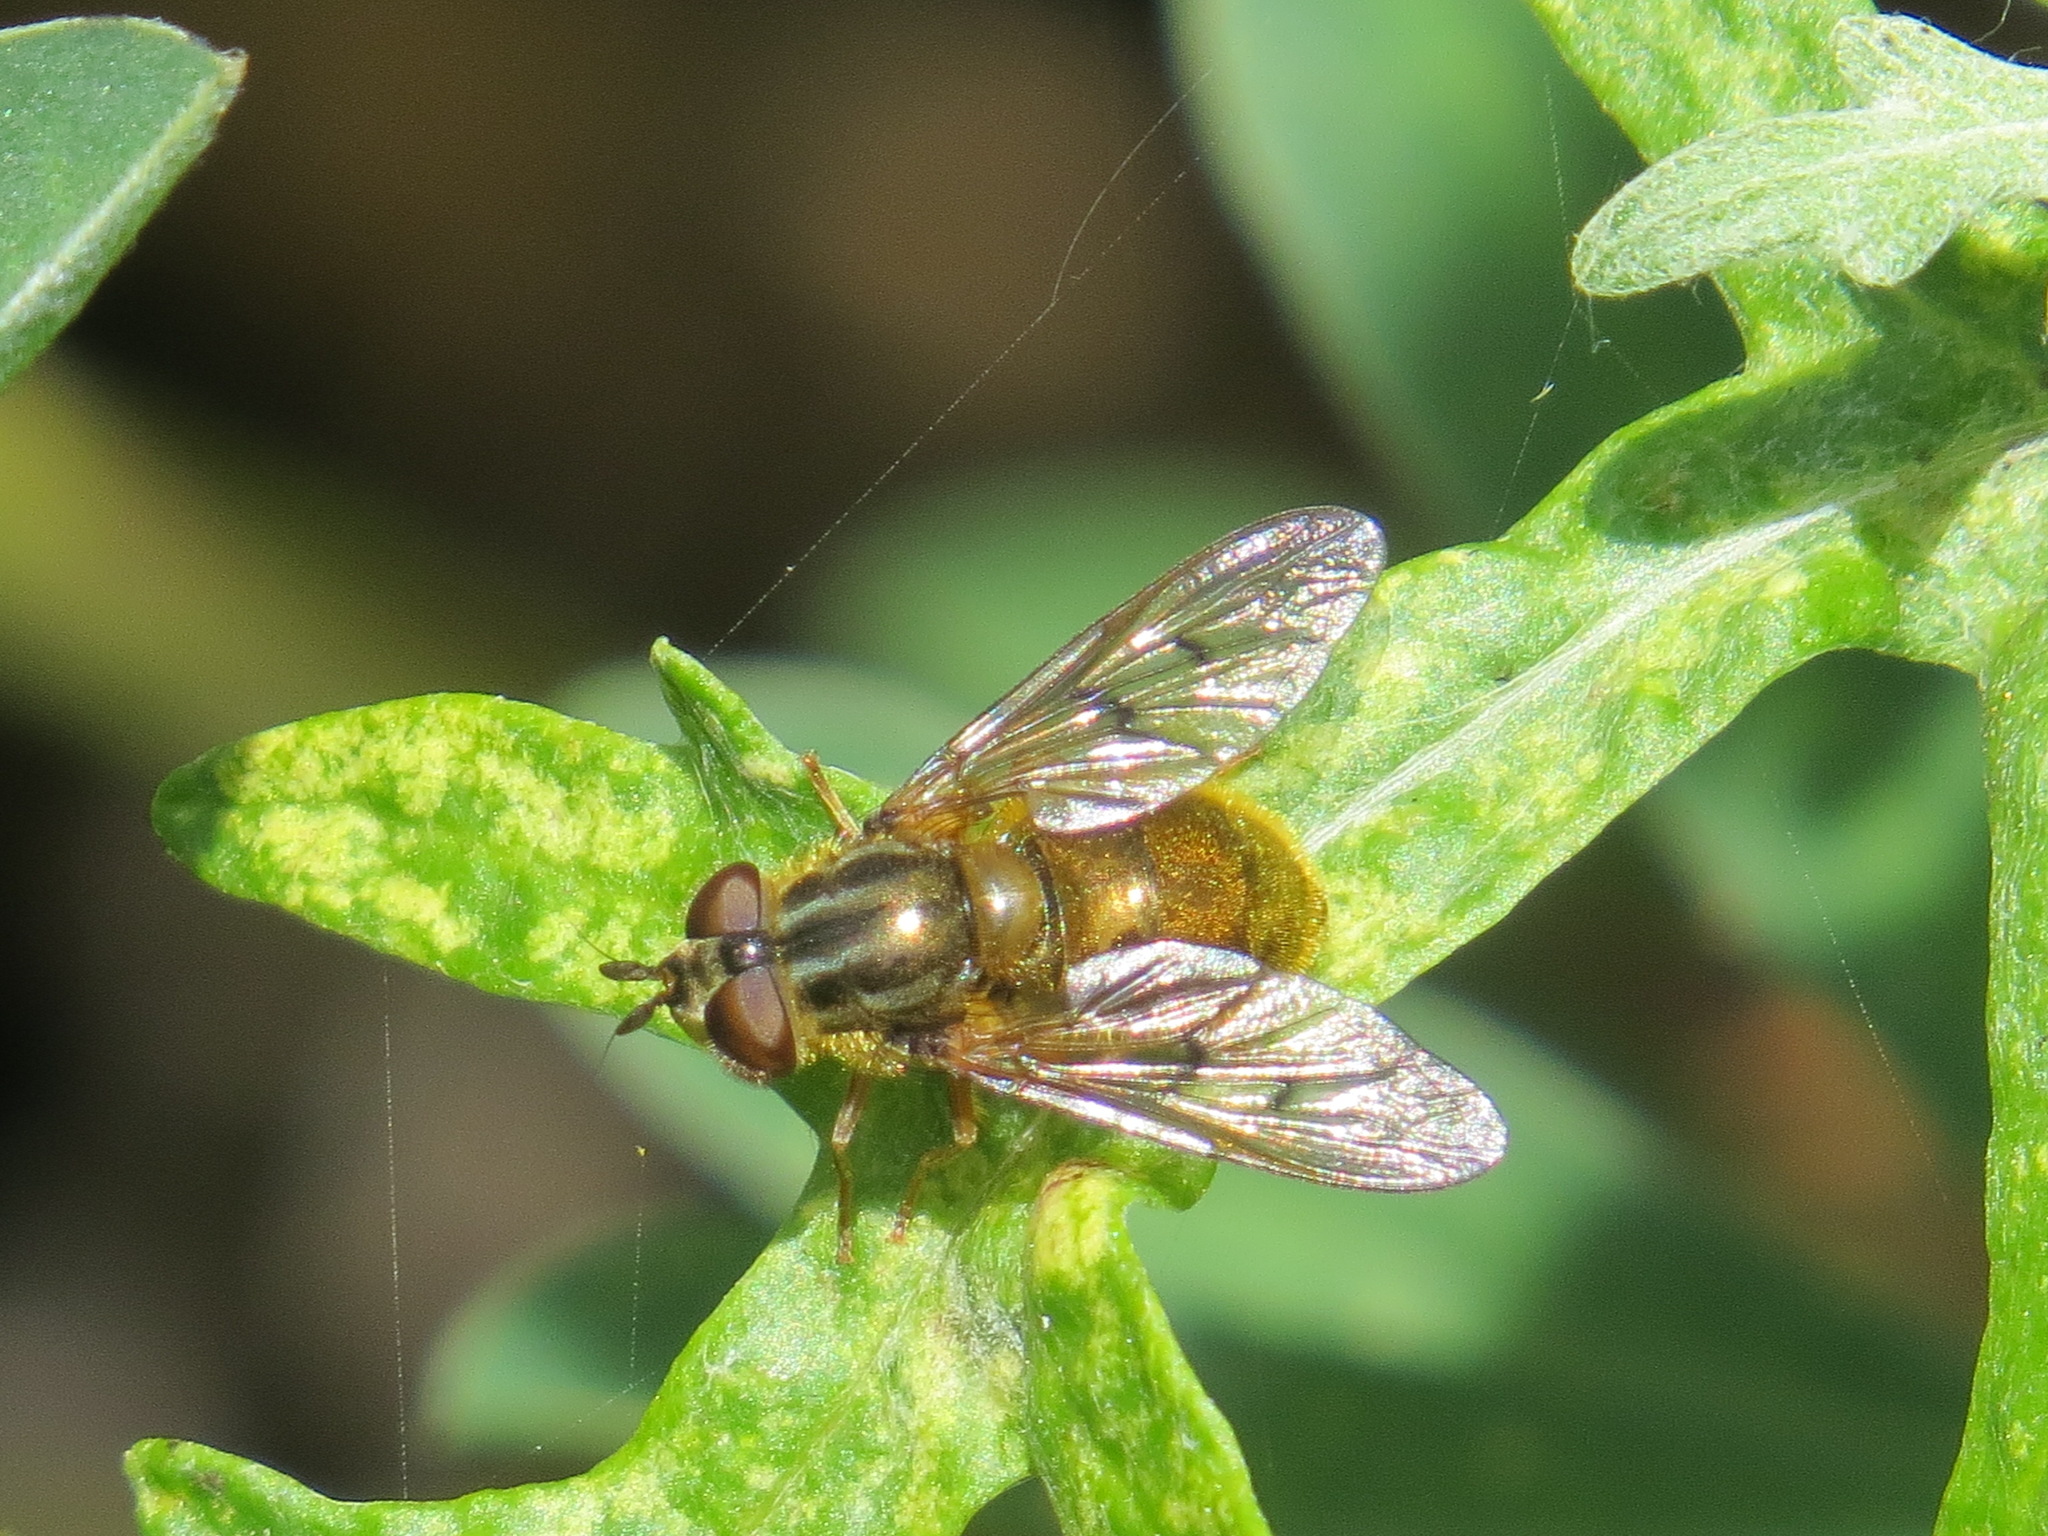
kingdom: Animalia
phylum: Arthropoda
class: Insecta
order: Diptera
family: Syrphidae
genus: Ferdinandea
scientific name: Ferdinandea croesus
